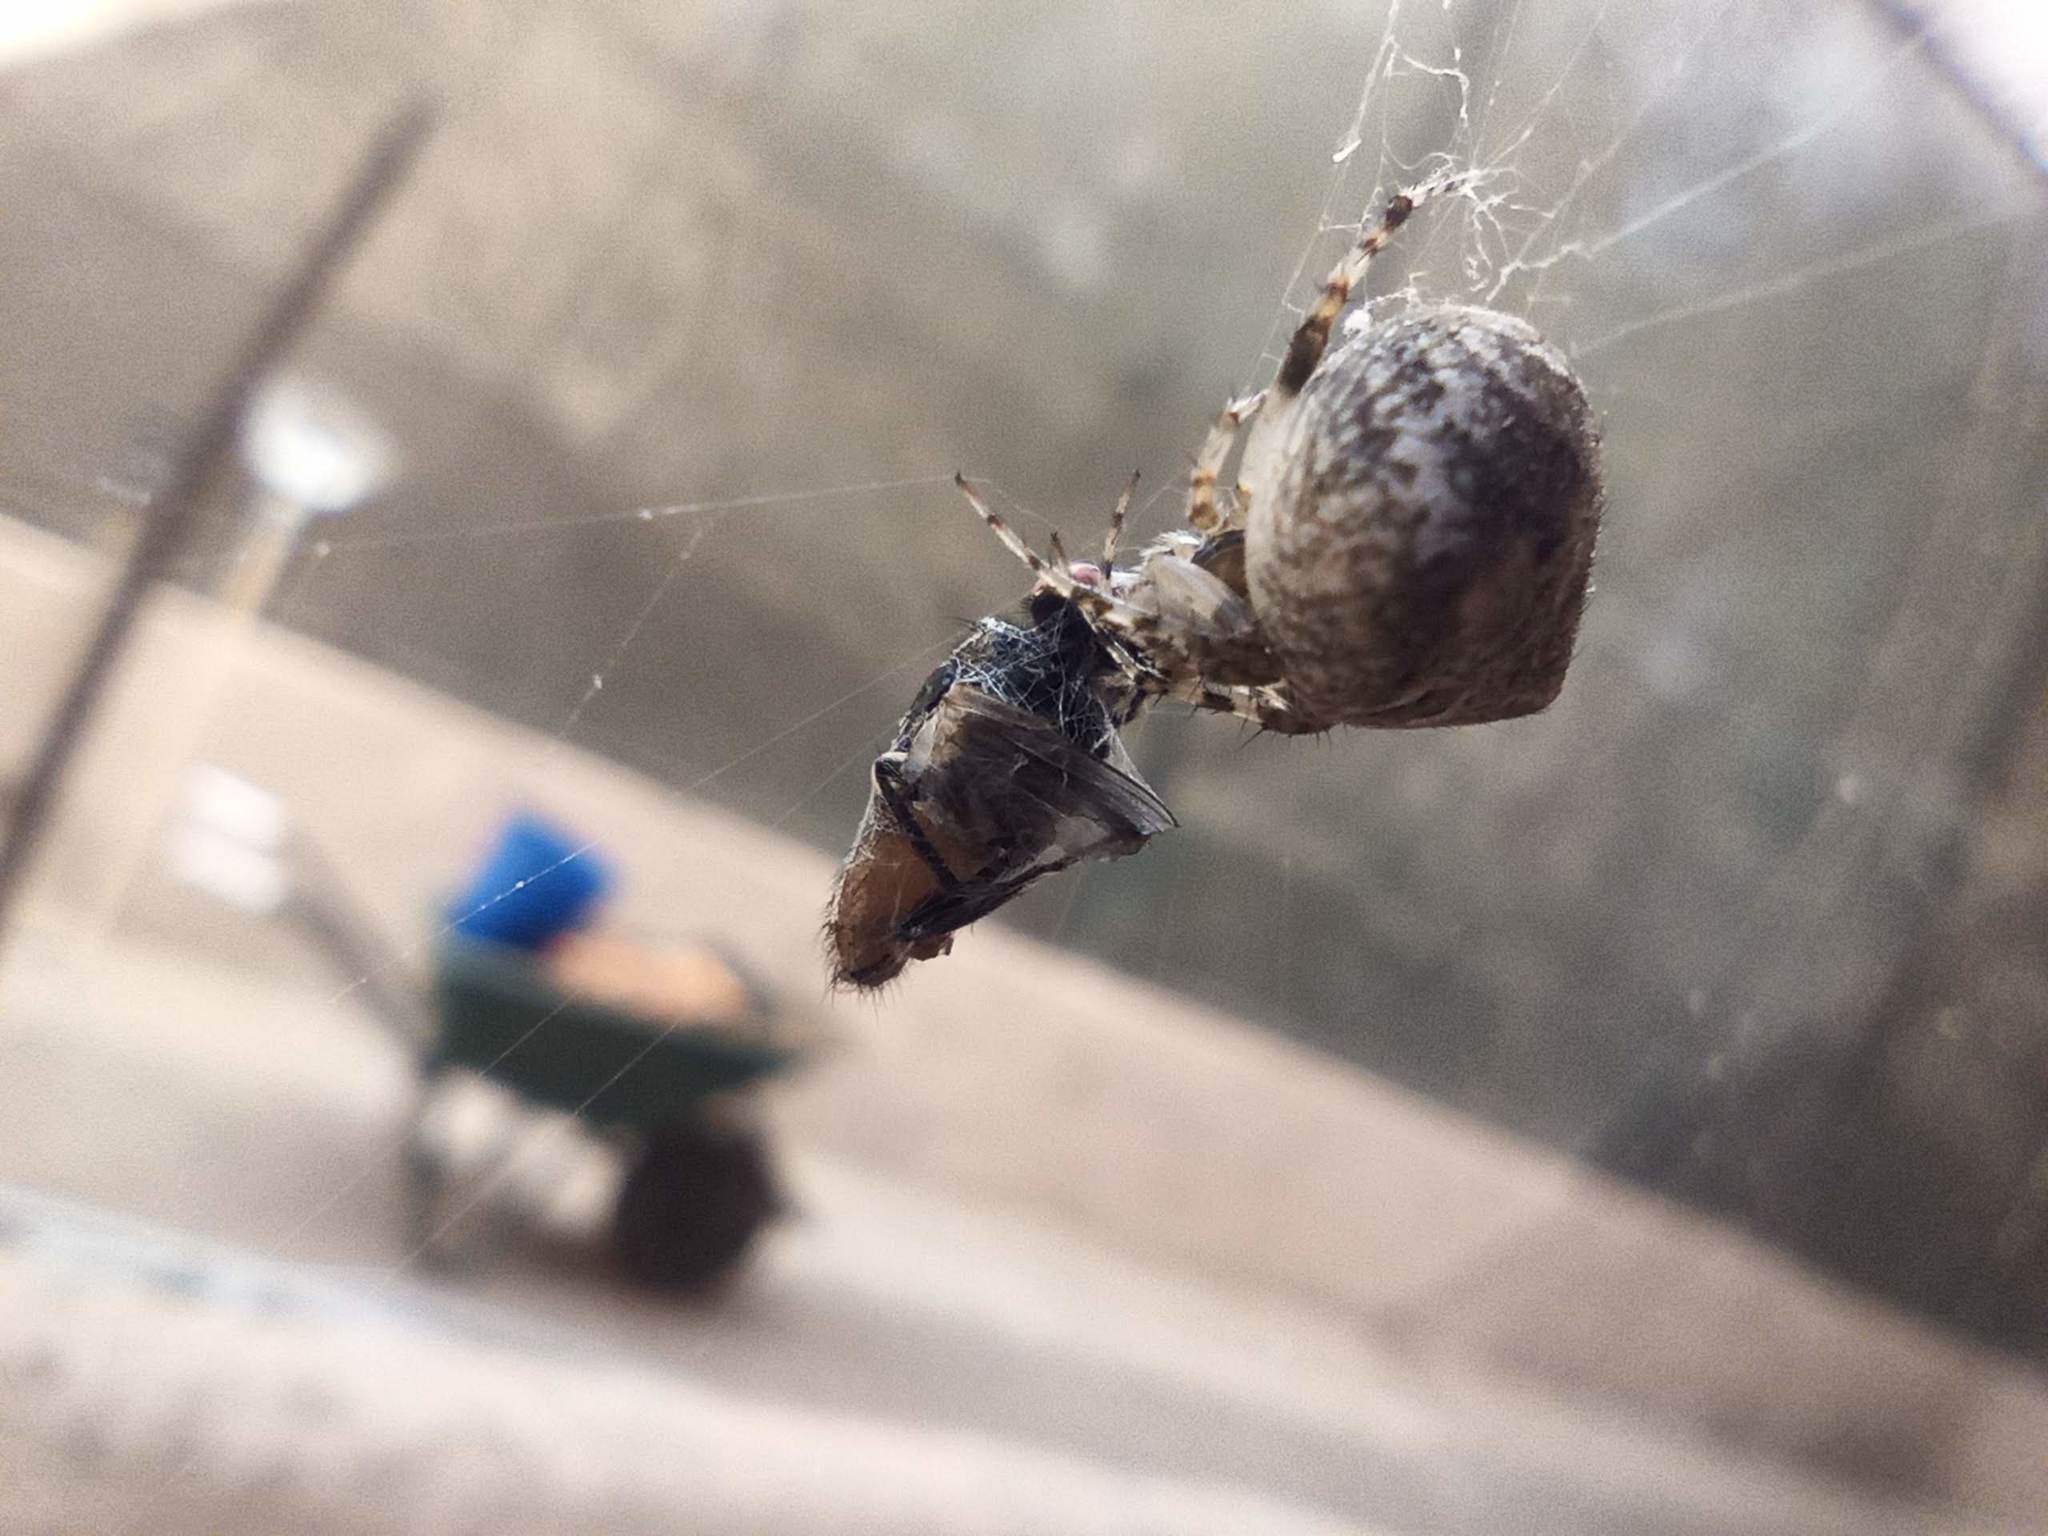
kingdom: Animalia
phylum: Arthropoda
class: Arachnida
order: Araneae
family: Araneidae
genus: Neoscona
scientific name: Neoscona subfusca
